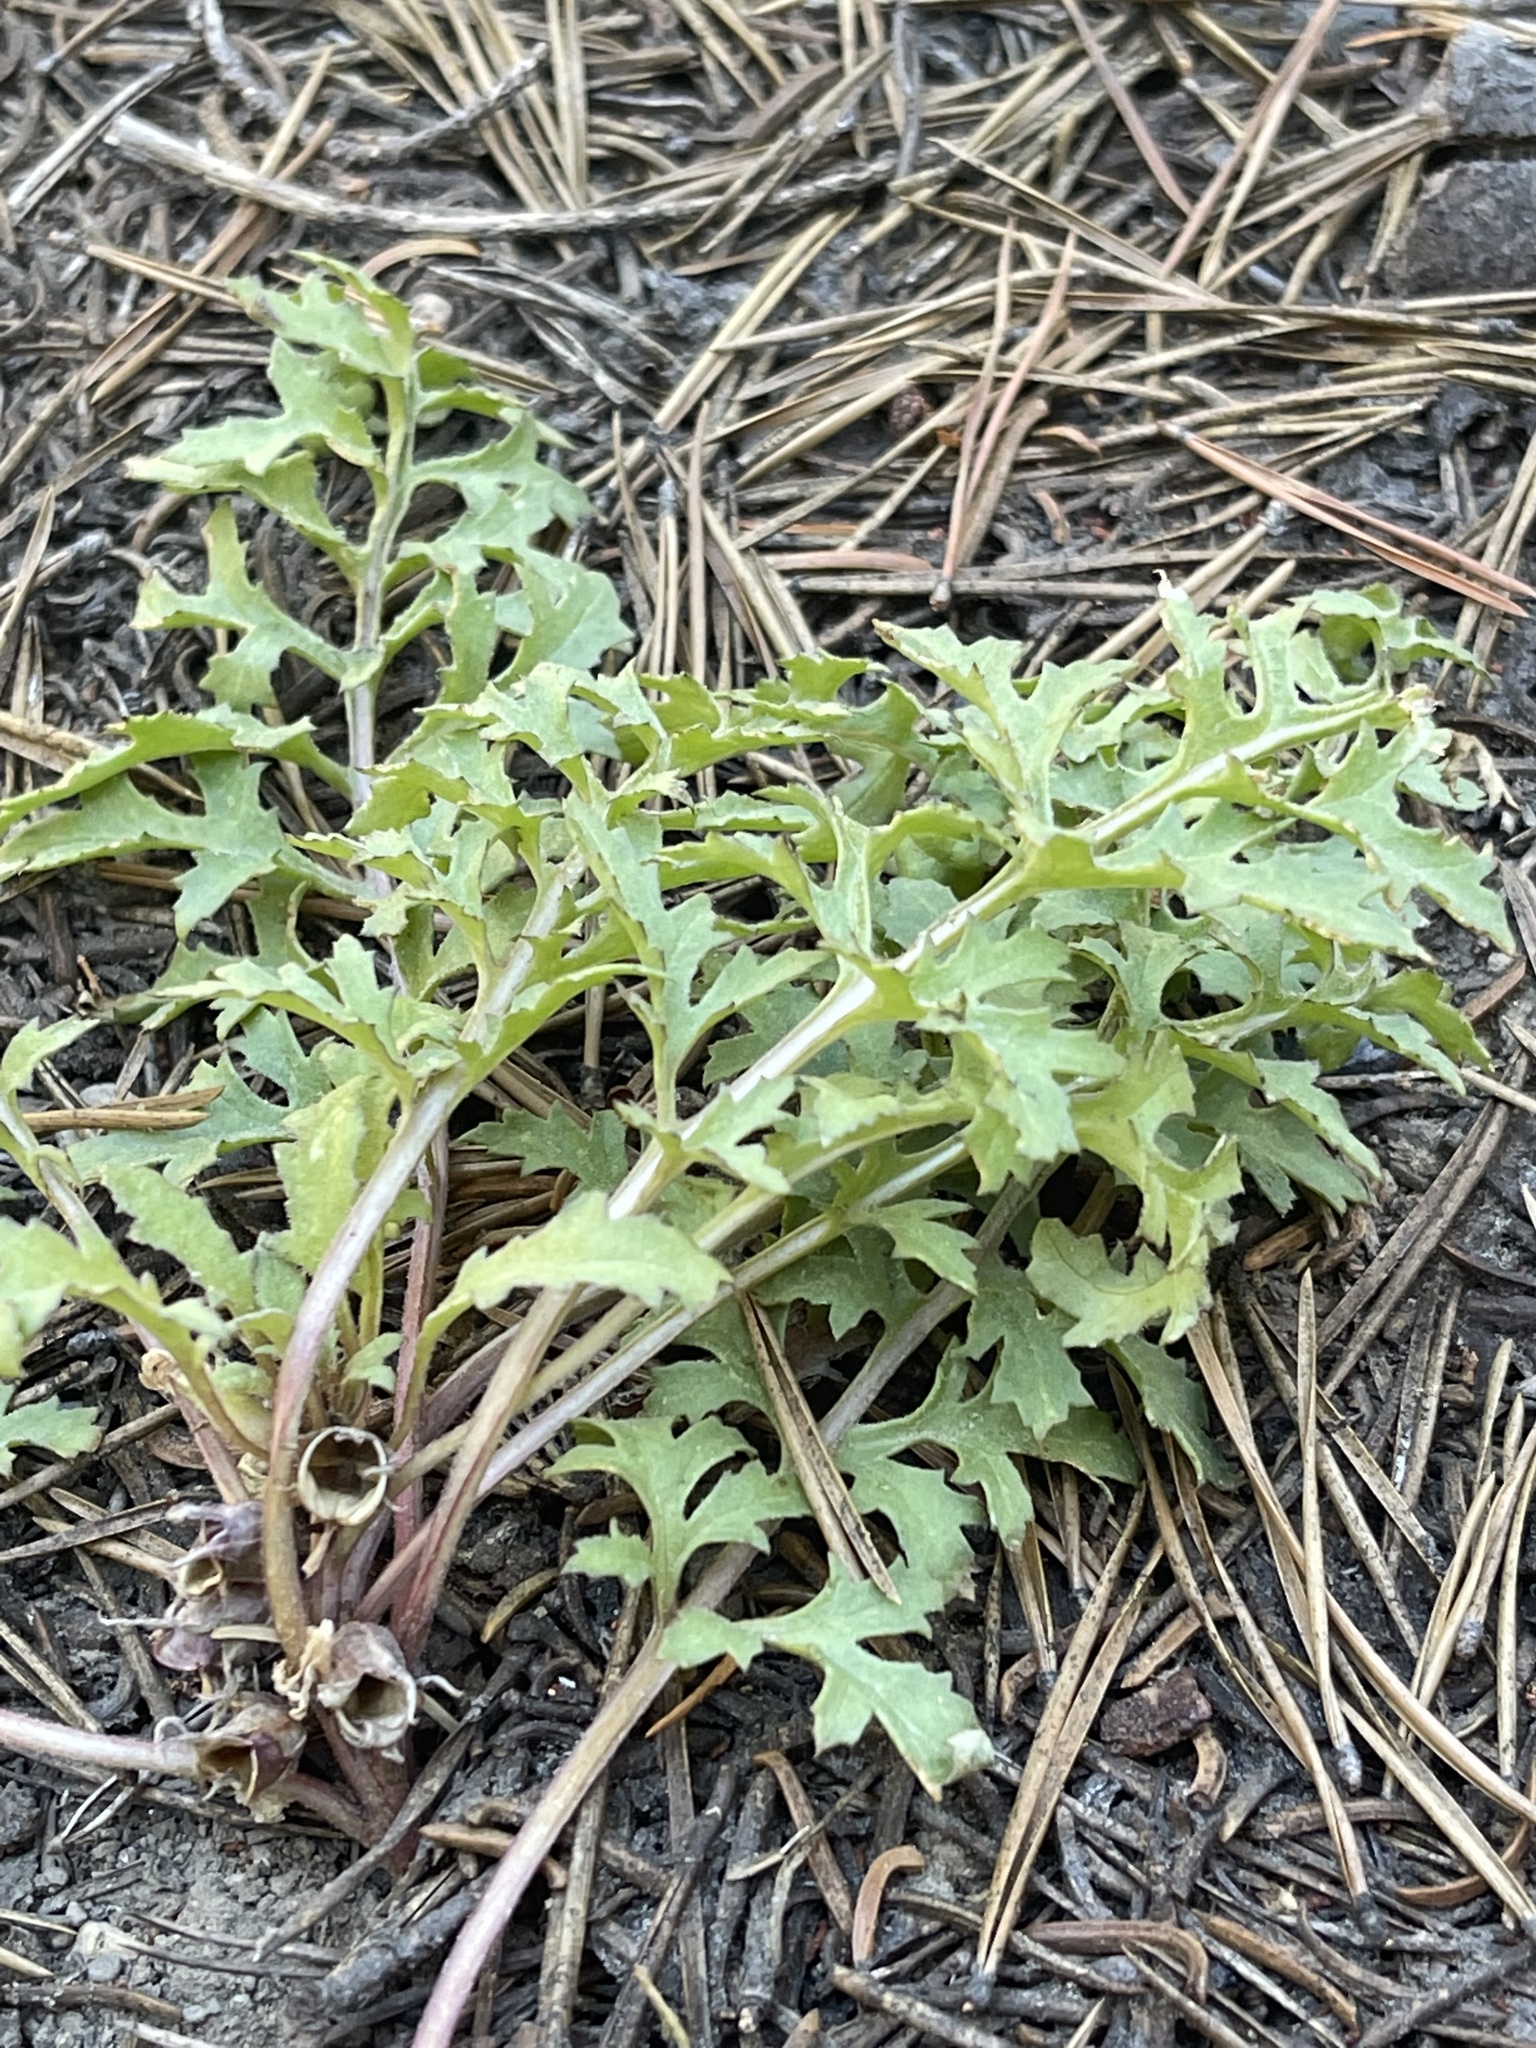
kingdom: Plantae
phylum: Tracheophyta
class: Magnoliopsida
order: Lamiales
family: Orobanchaceae
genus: Pedicularis
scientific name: Pedicularis semibarbata
